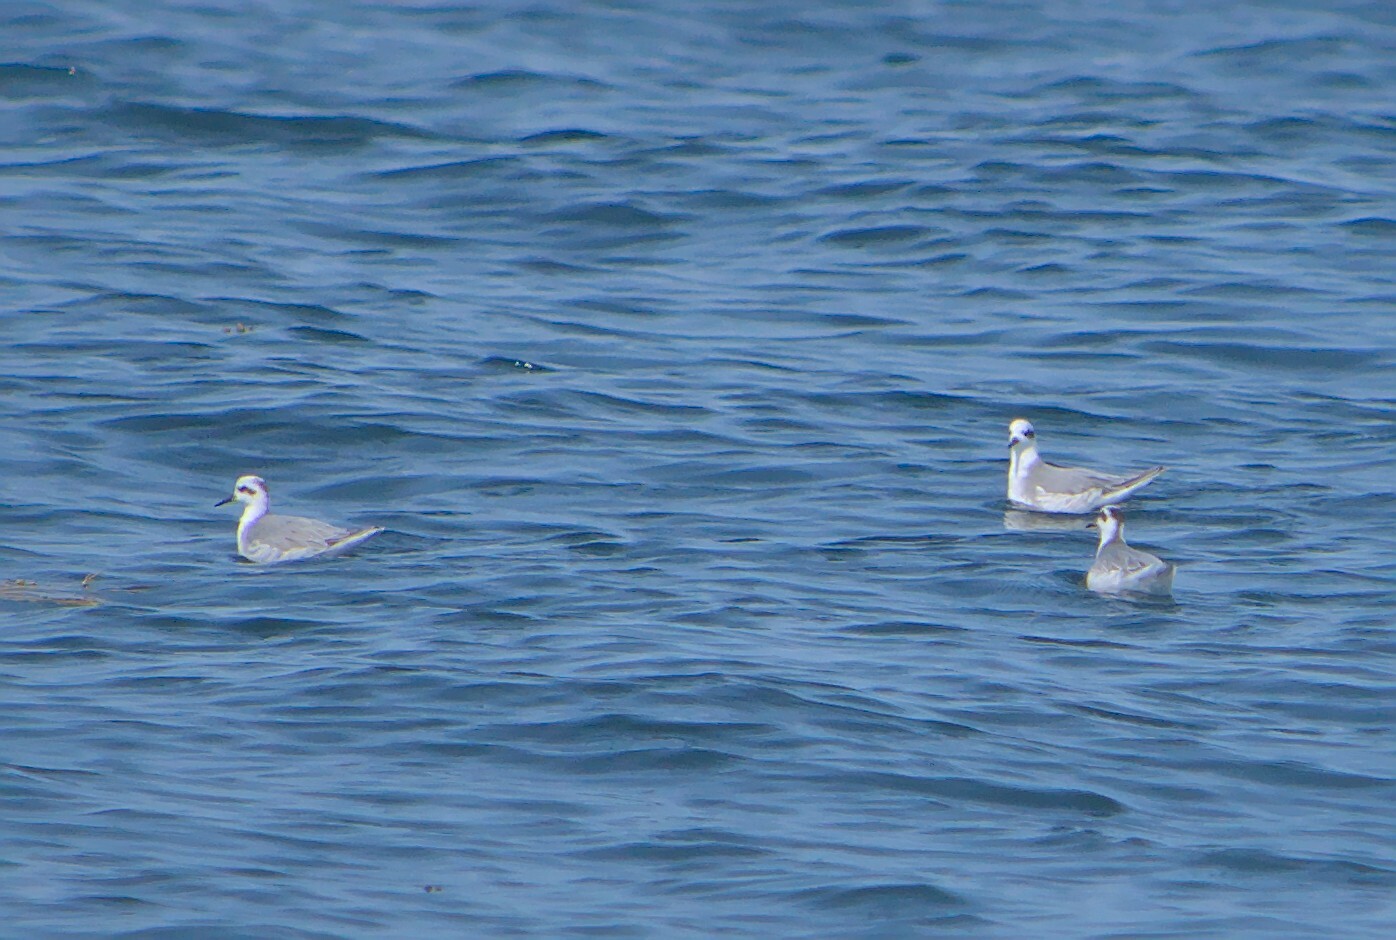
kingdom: Animalia
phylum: Chordata
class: Aves
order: Charadriiformes
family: Scolopacidae
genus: Phalaropus
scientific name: Phalaropus fulicarius
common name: Red phalarope
